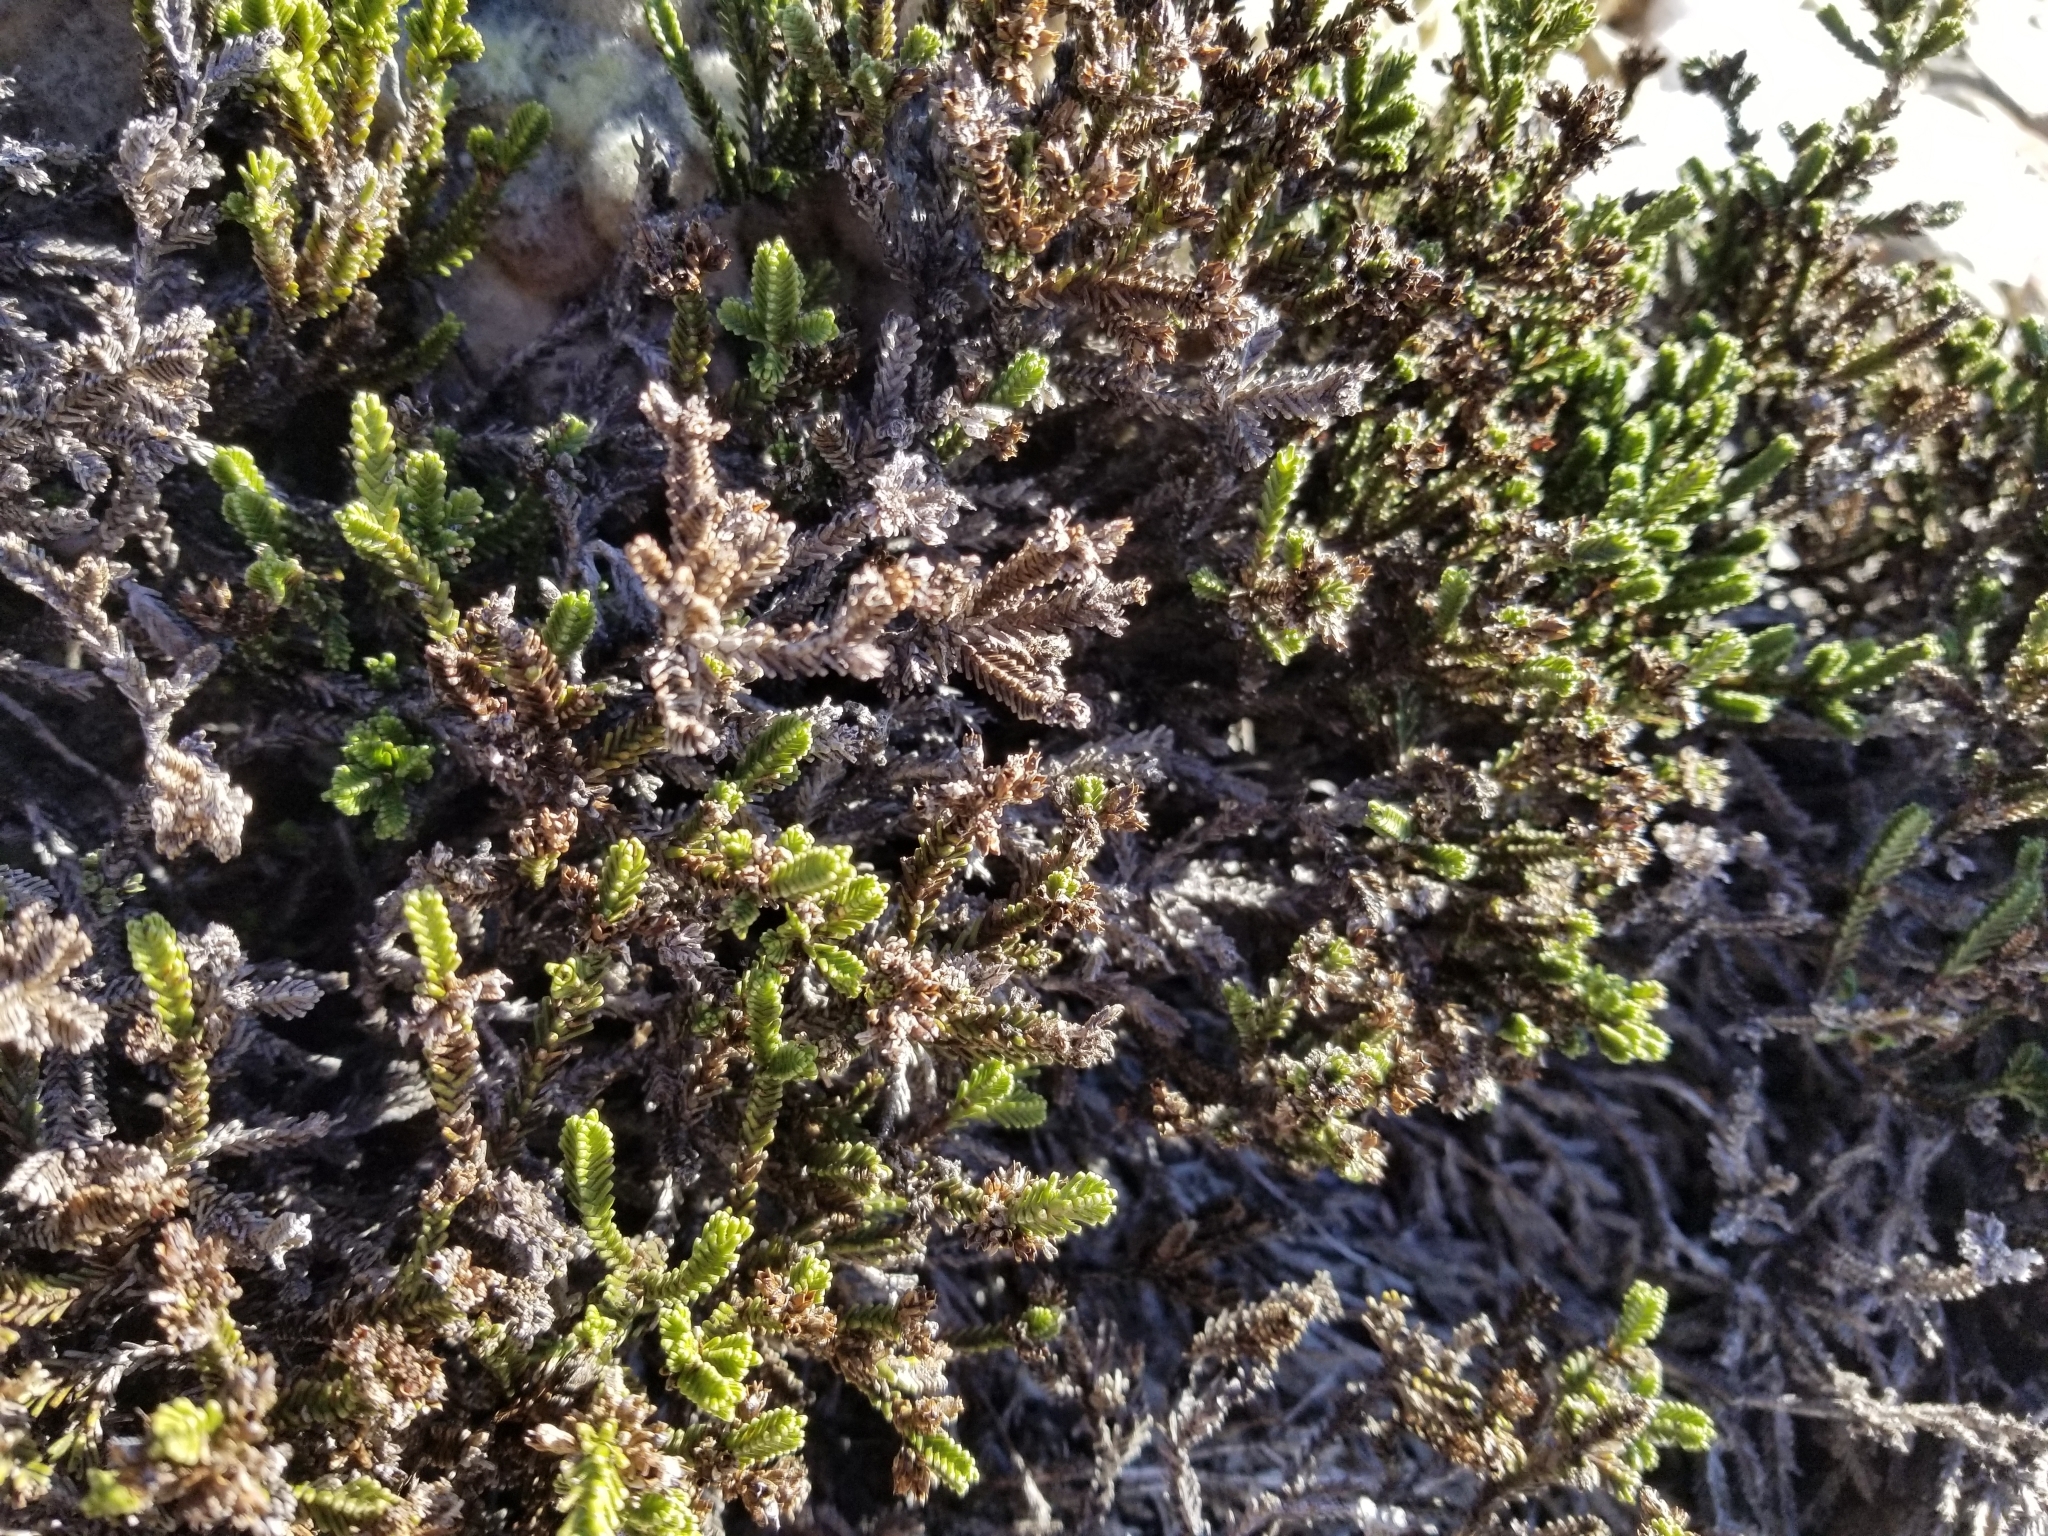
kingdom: Plantae
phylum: Tracheophyta
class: Magnoliopsida
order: Lamiales
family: Plantaginaceae
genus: Veronica
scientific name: Veronica hookeri
